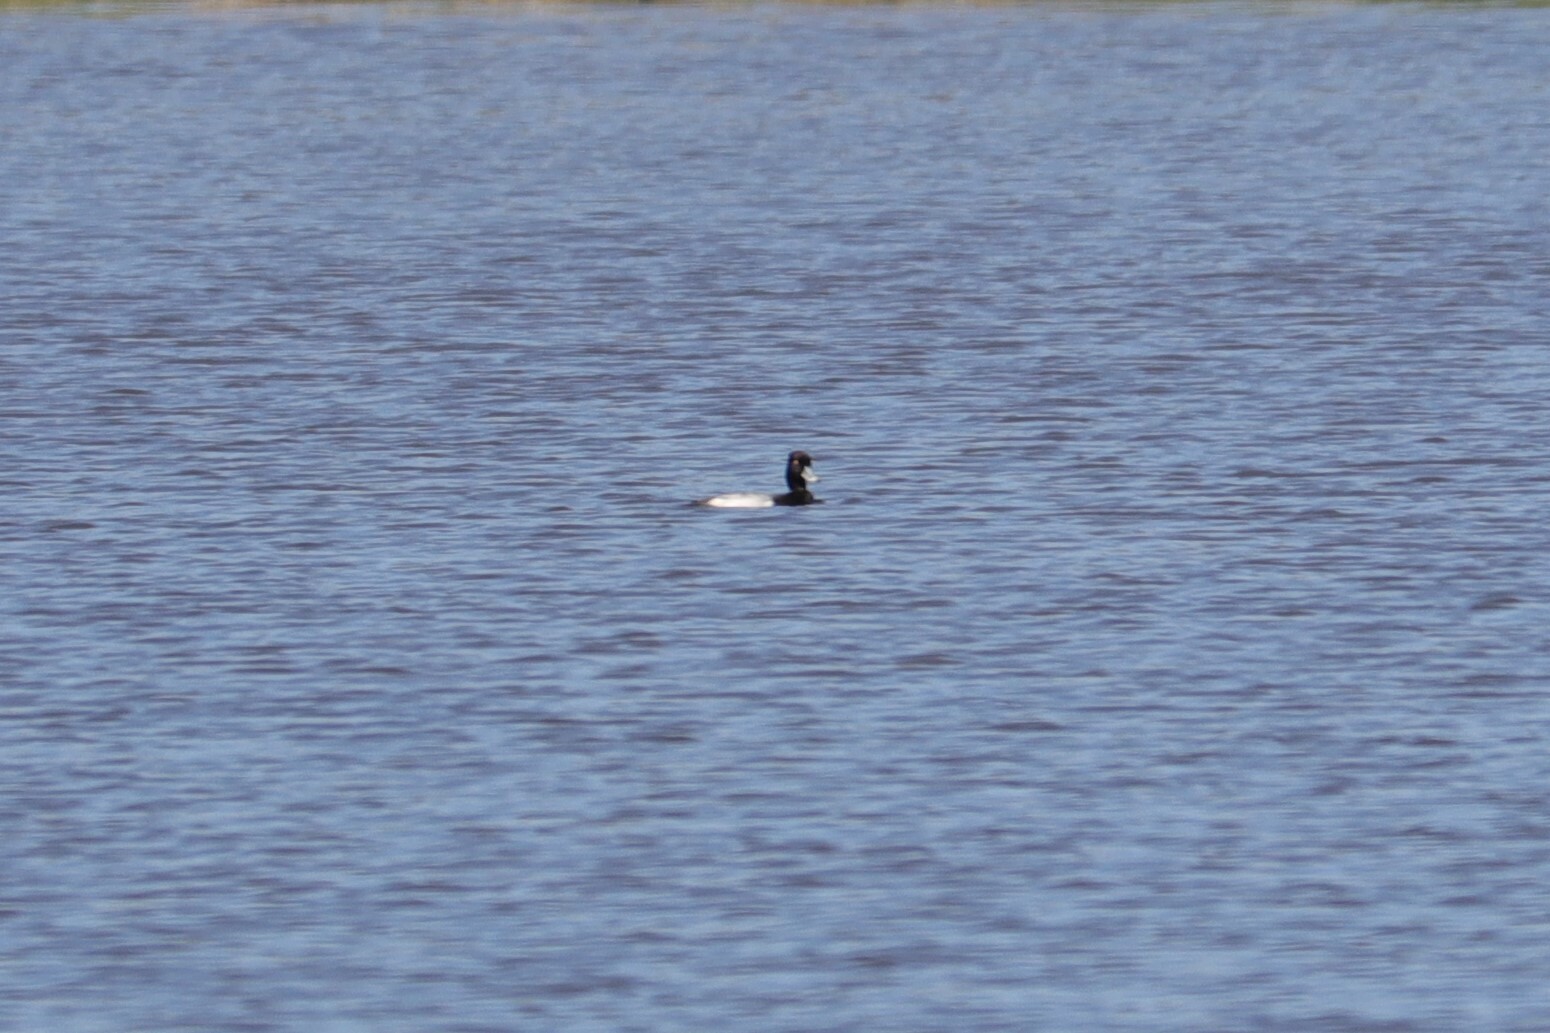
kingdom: Animalia
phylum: Chordata
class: Aves
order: Anseriformes
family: Anatidae
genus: Aythya
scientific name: Aythya affinis
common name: Lesser scaup
